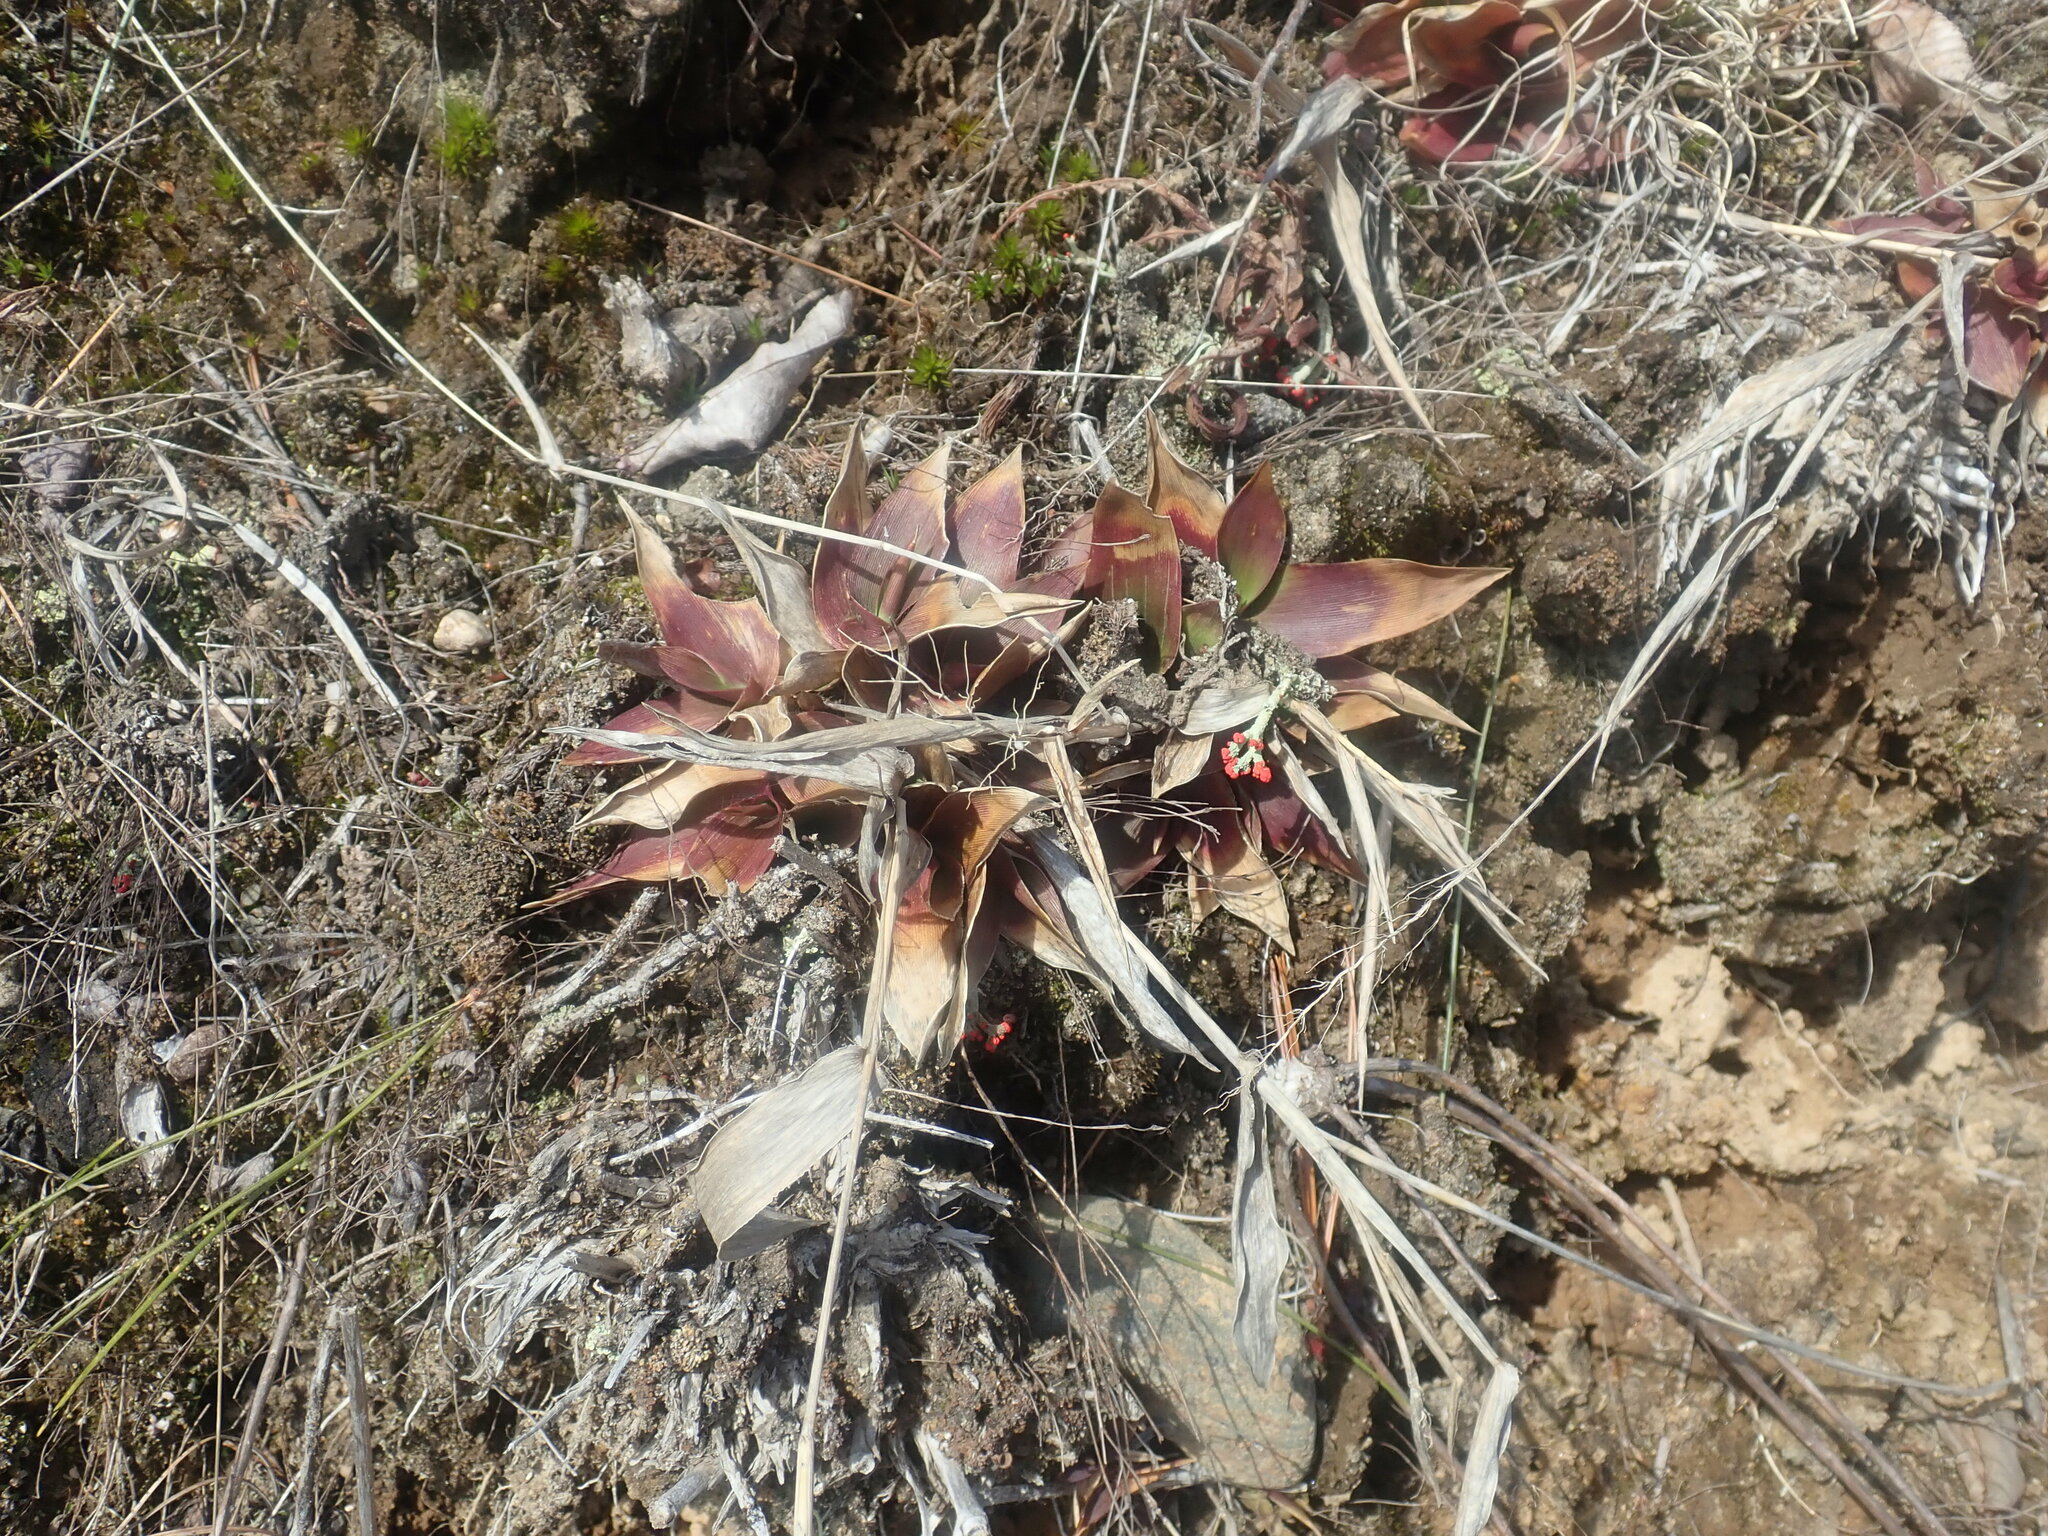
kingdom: Plantae
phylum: Tracheophyta
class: Liliopsida
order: Poales
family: Poaceae
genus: Dichanthelium
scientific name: Dichanthelium
